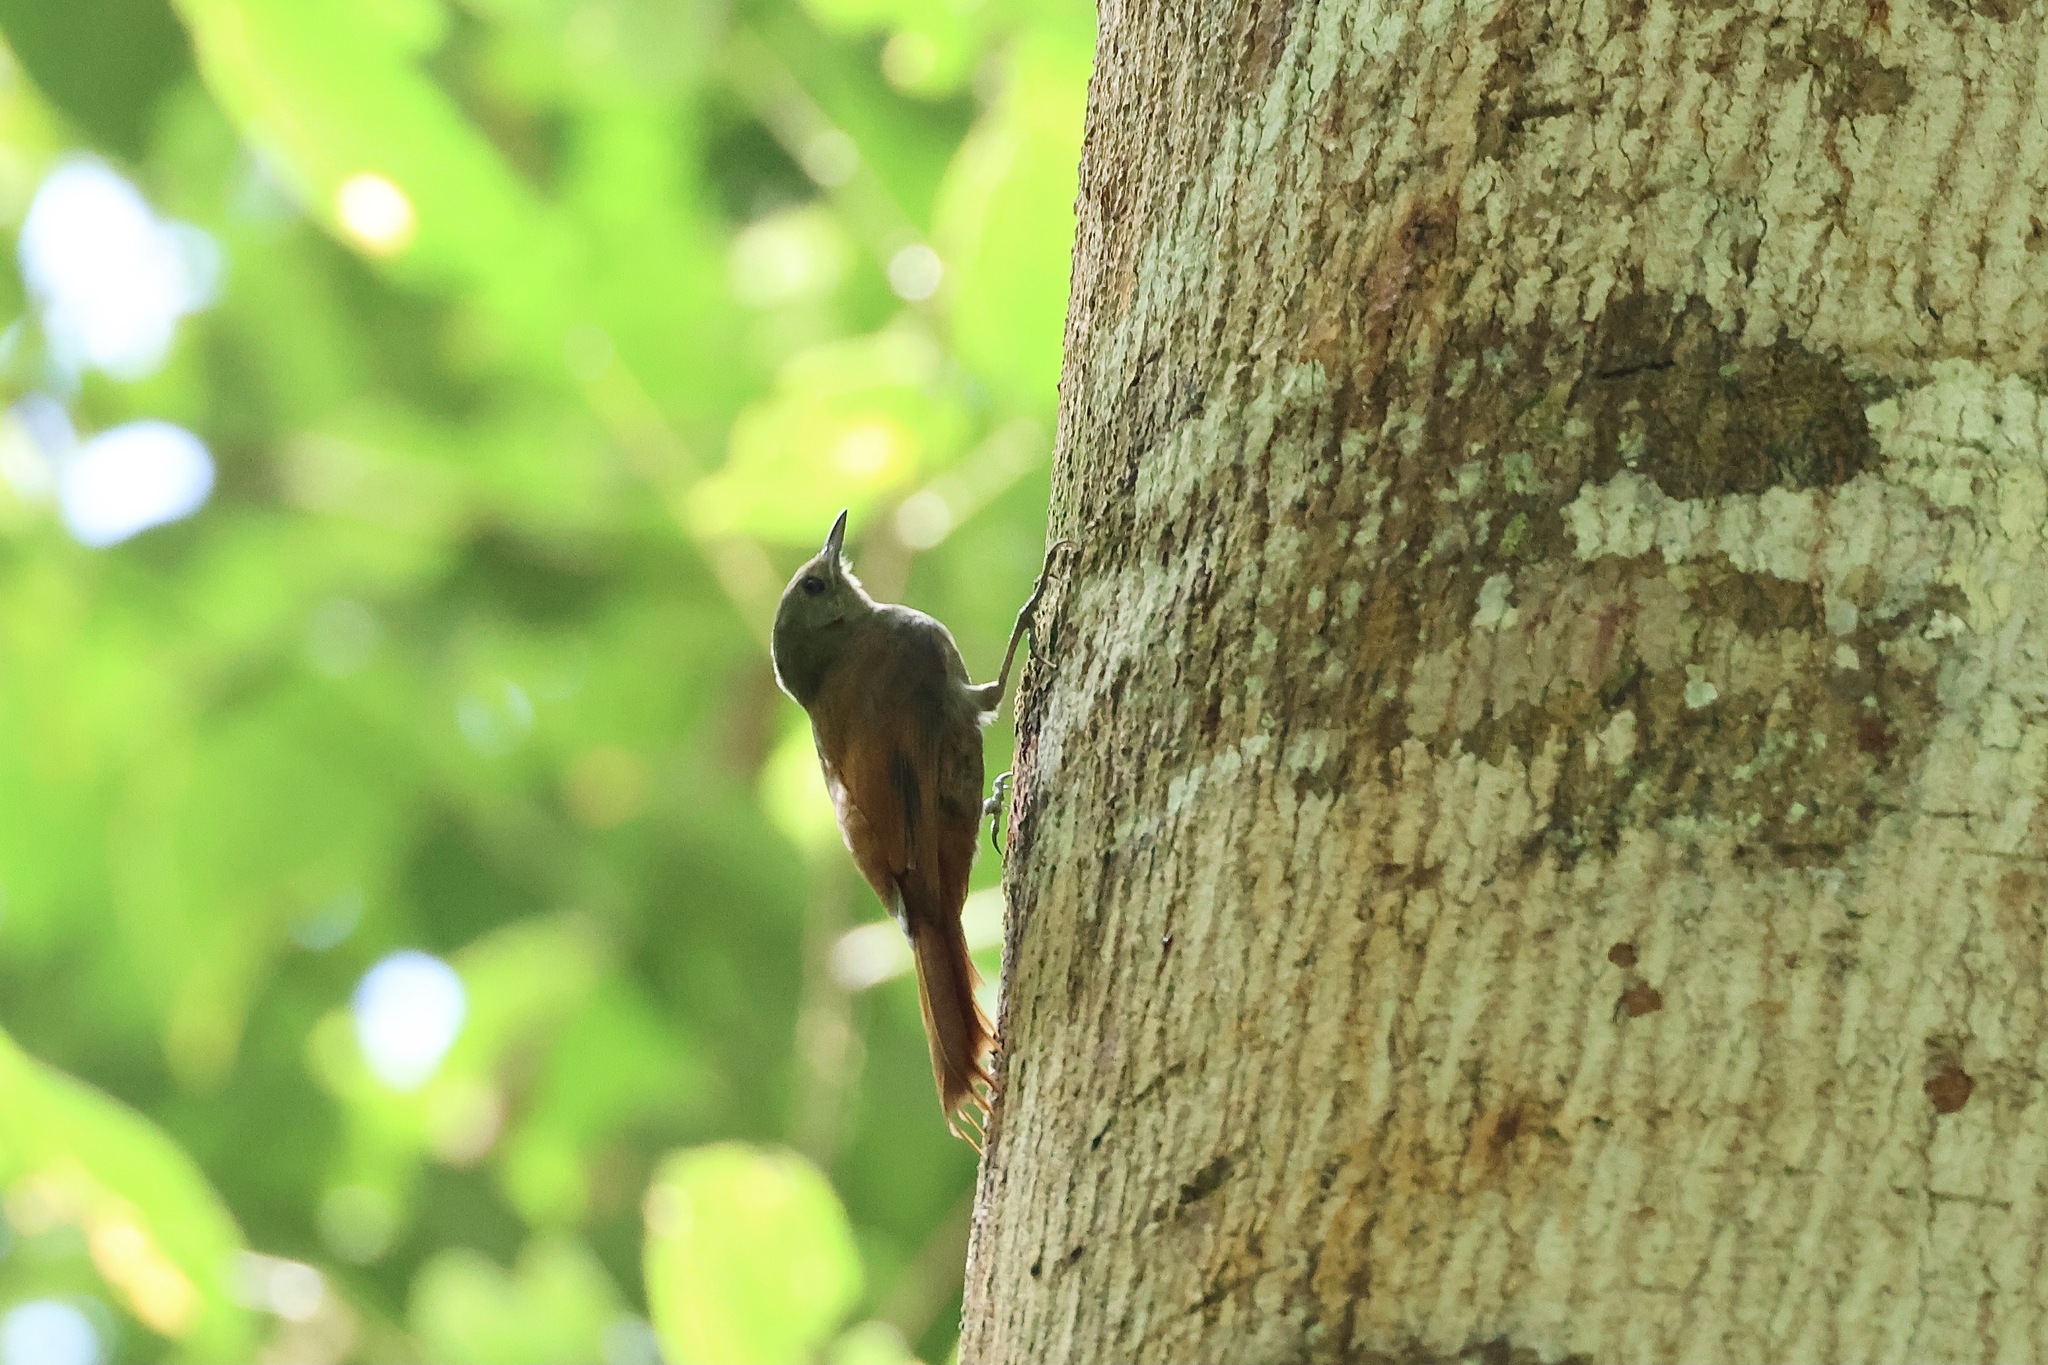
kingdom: Animalia
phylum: Chordata
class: Aves
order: Passeriformes
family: Furnariidae
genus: Sittasomus
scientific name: Sittasomus griseicapillus
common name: Olivaceous woodcreeper
